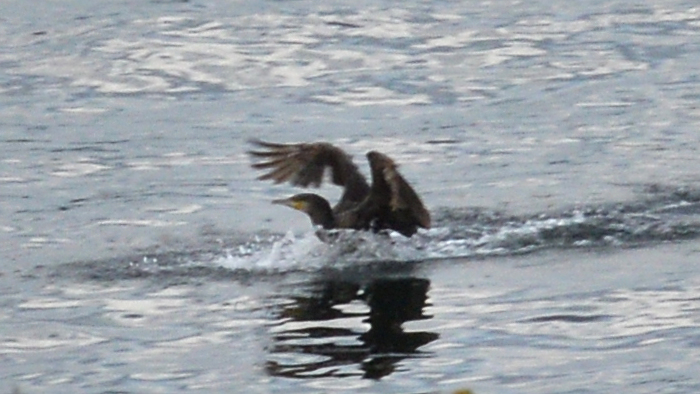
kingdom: Animalia
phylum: Chordata
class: Aves
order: Suliformes
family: Phalacrocoracidae
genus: Phalacrocorax
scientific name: Phalacrocorax carbo
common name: Great cormorant
